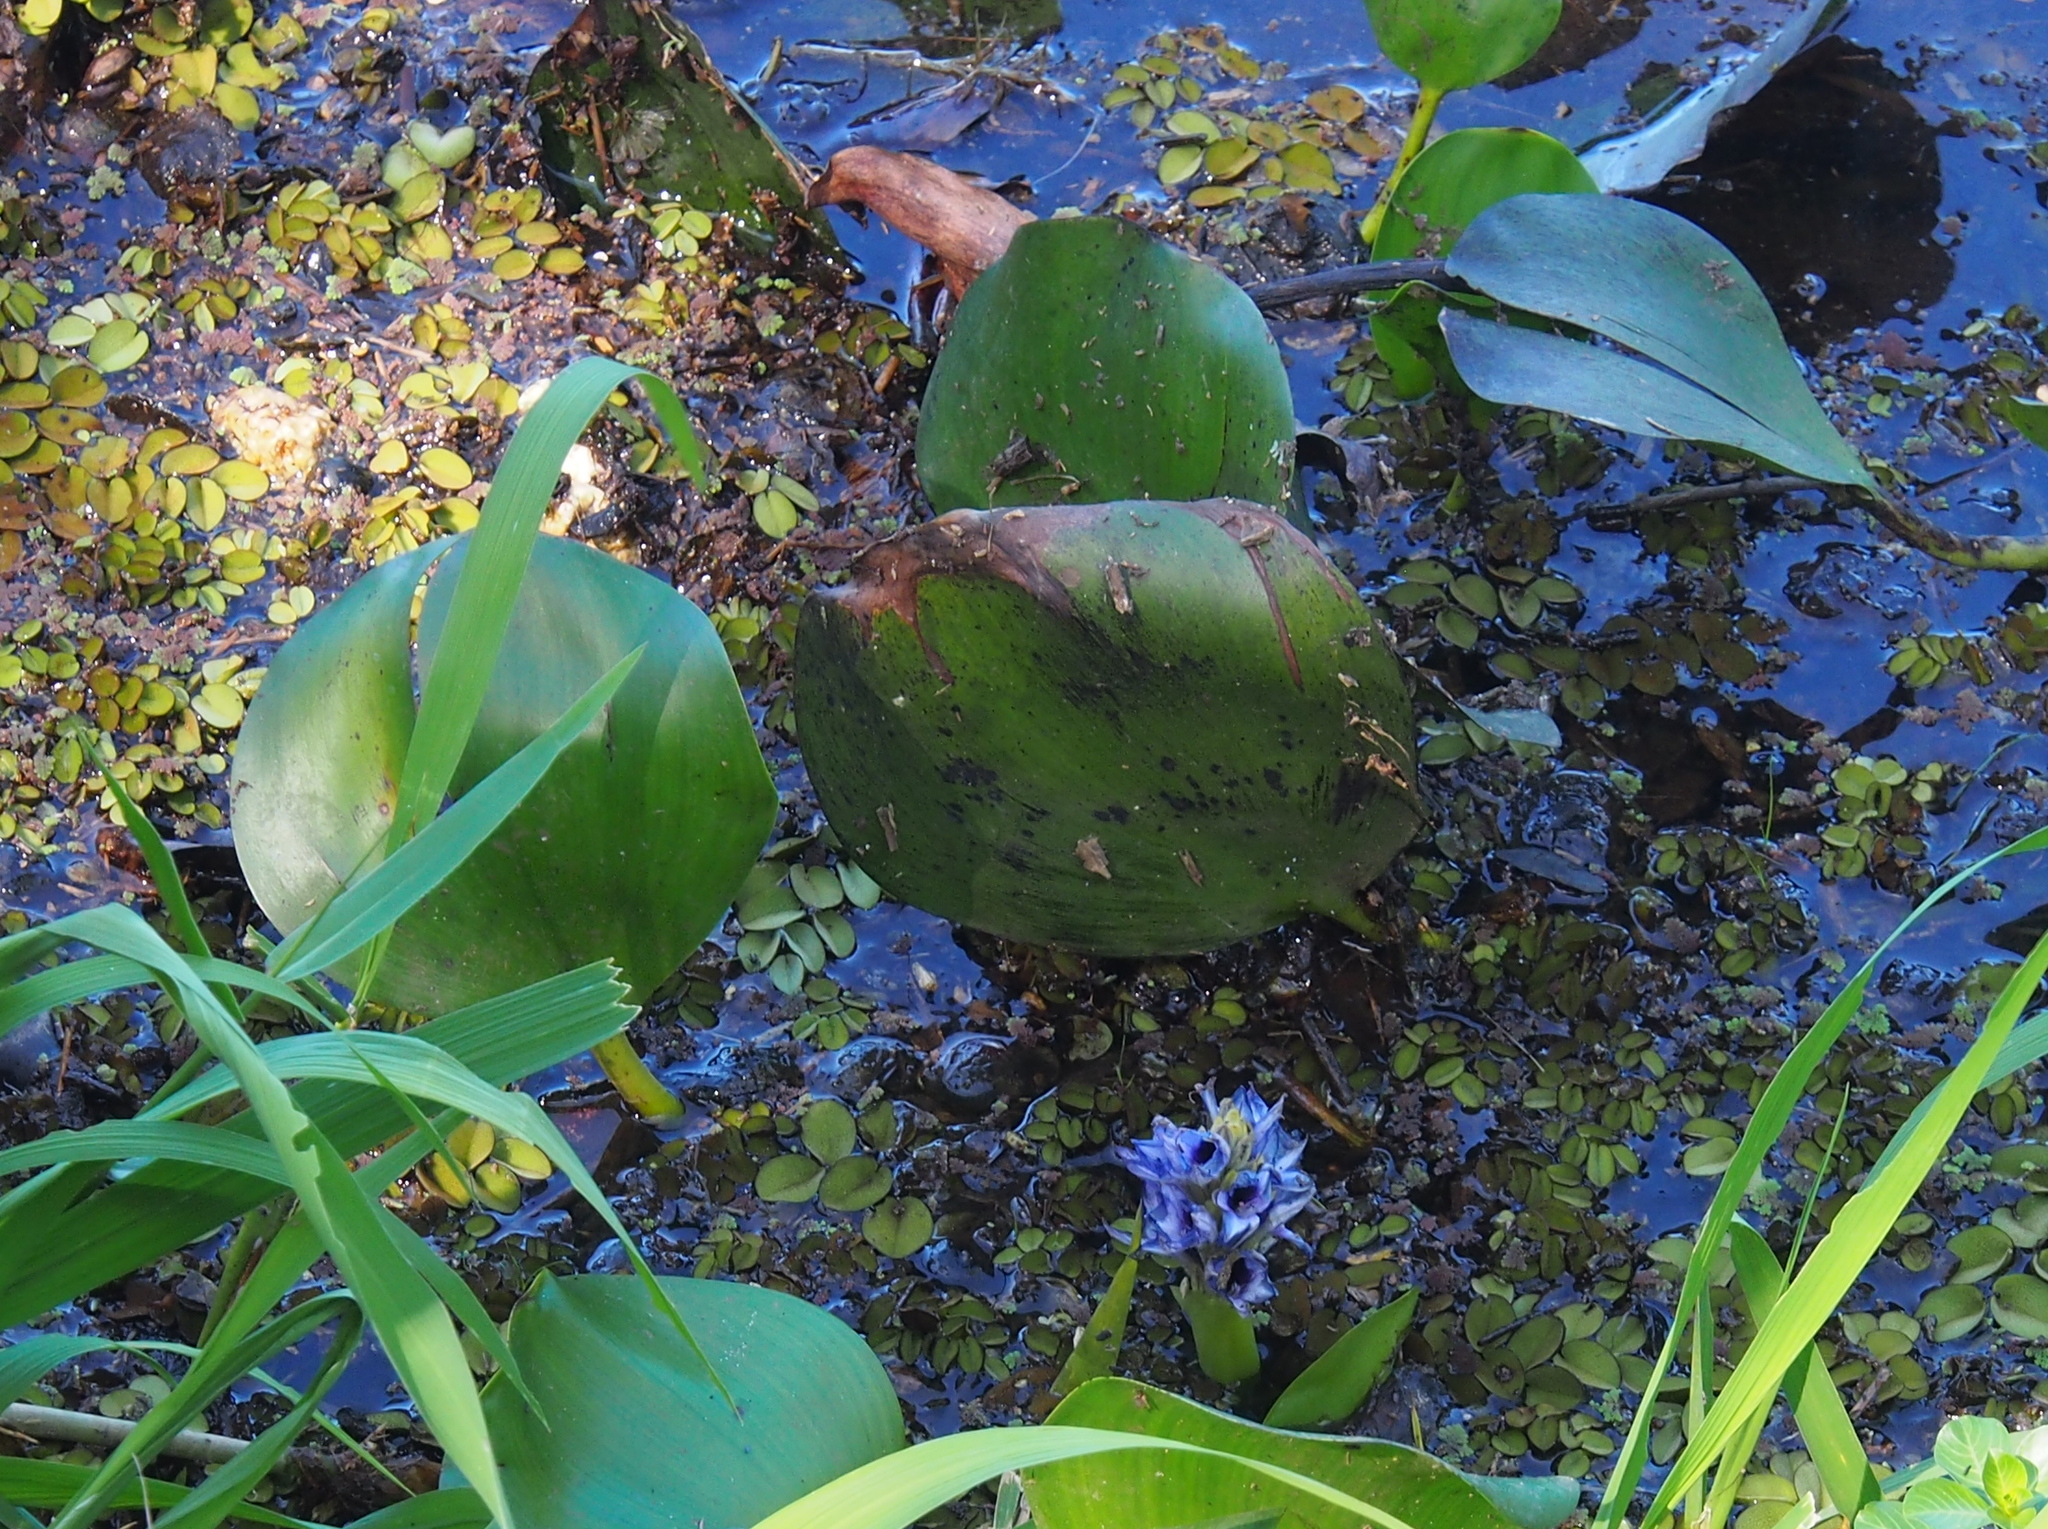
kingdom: Plantae
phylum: Tracheophyta
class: Liliopsida
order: Commelinales
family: Pontederiaceae
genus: Pontederia
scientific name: Pontederia heterosperma
